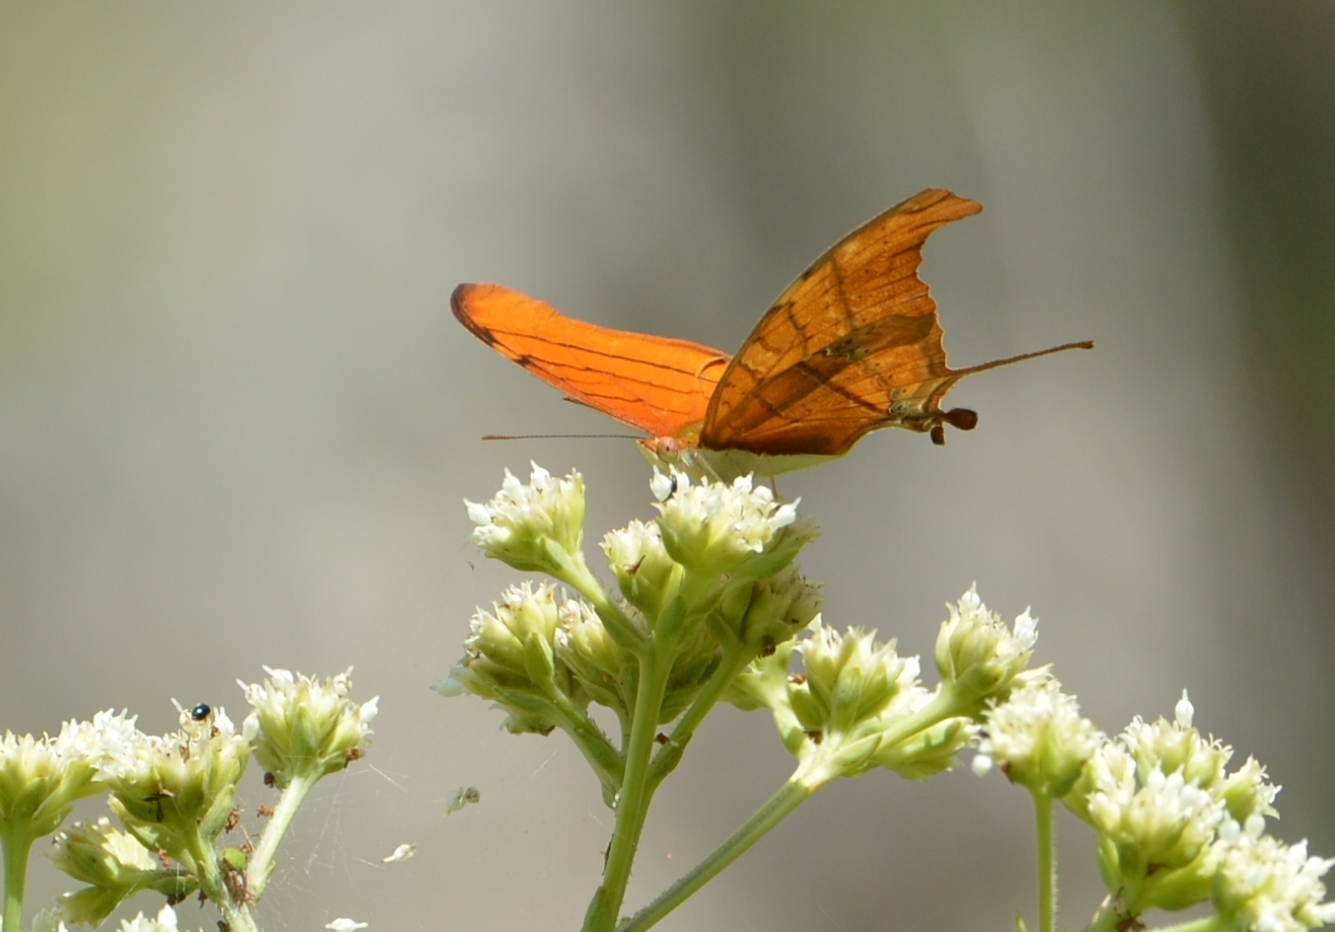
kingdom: Animalia
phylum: Arthropoda
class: Insecta
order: Lepidoptera
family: Nymphalidae
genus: Marpesia
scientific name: Marpesia petreus
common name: Red dagger wing
